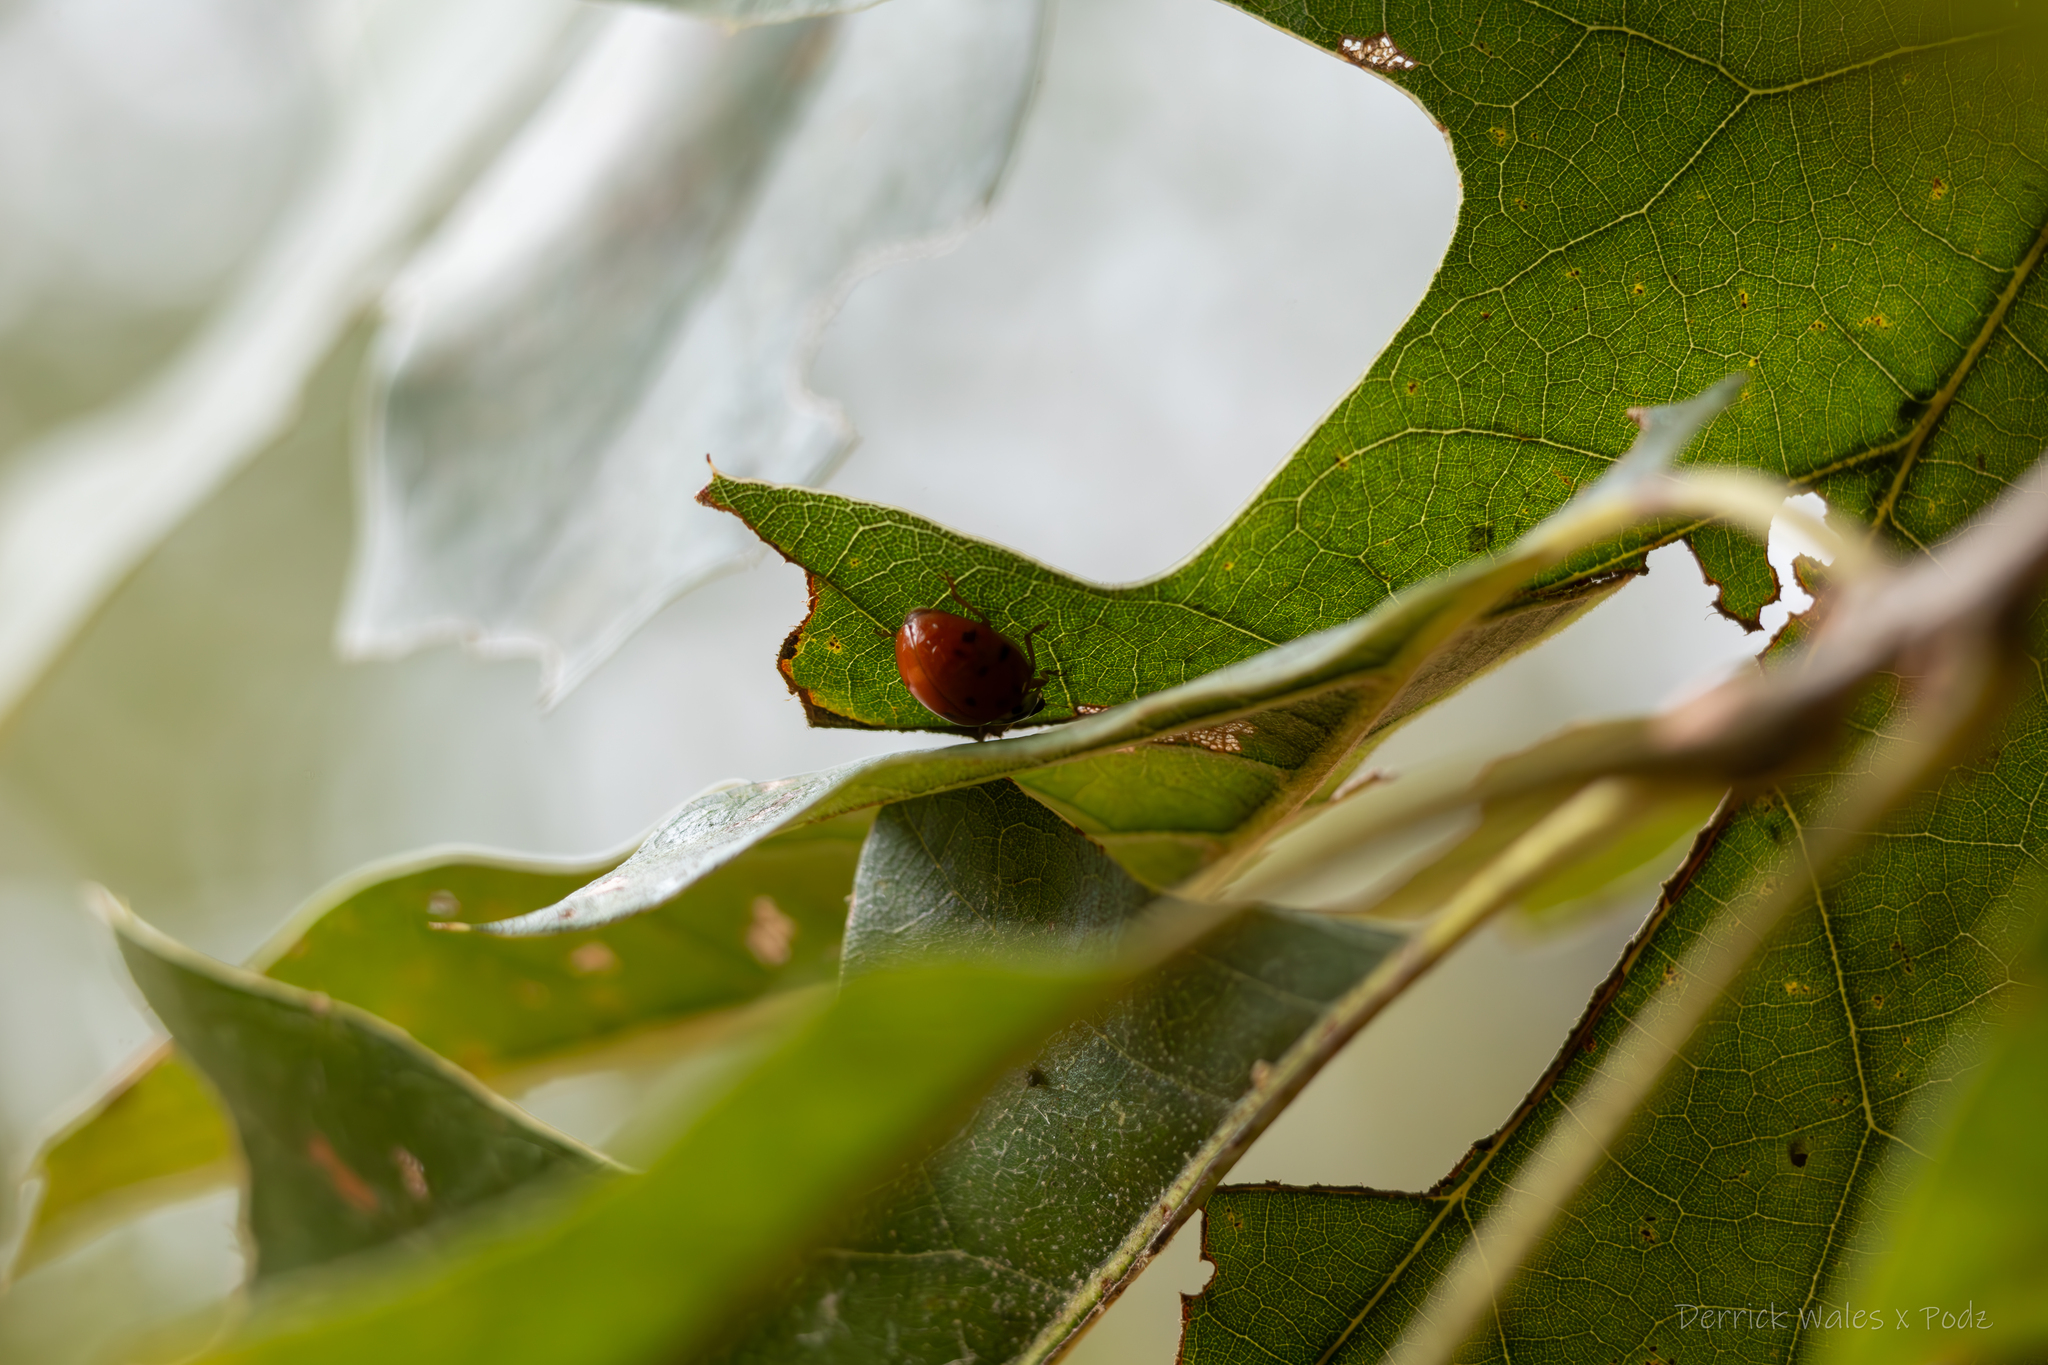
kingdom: Animalia
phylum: Arthropoda
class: Insecta
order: Coleoptera
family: Coccinellidae
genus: Harmonia
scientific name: Harmonia axyridis
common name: Harlequin ladybird
